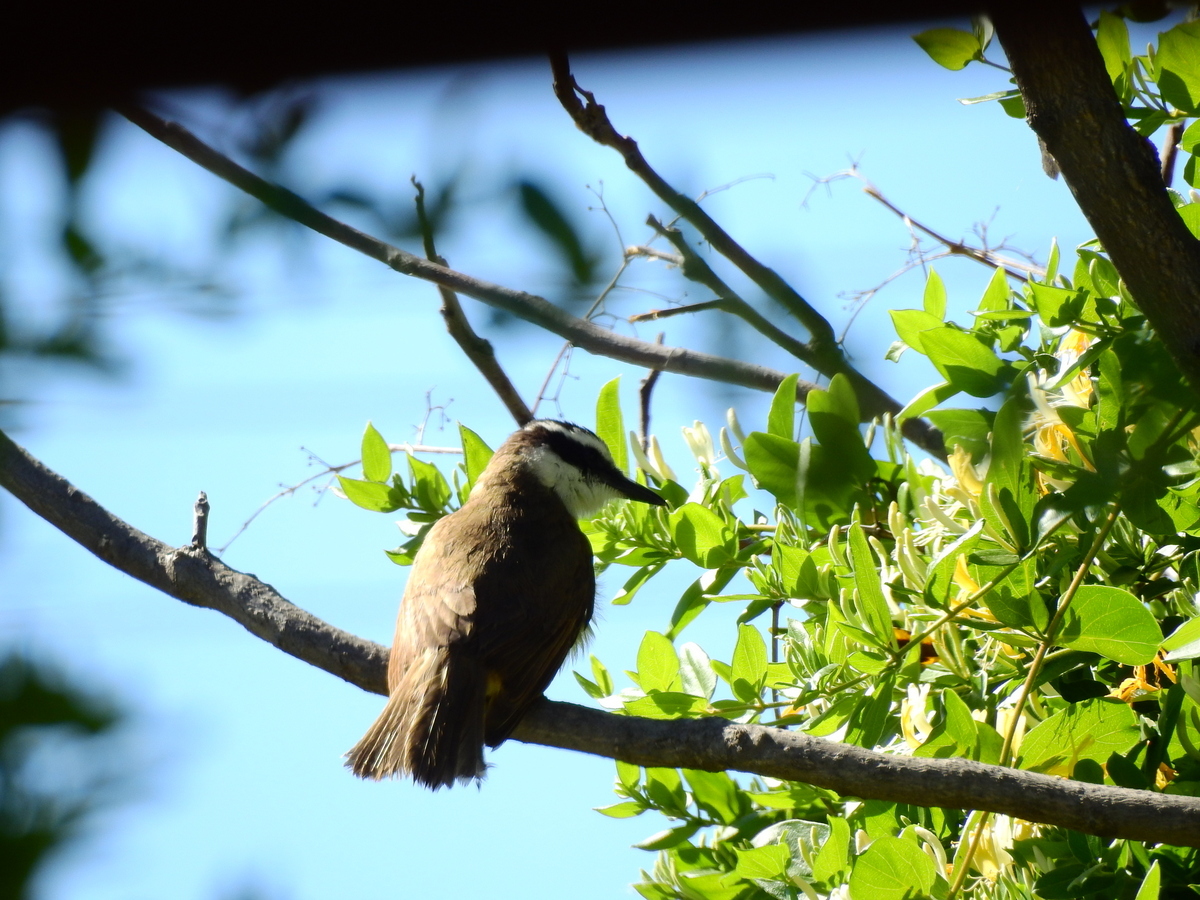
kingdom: Animalia
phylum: Chordata
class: Aves
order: Passeriformes
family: Tyrannidae
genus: Pitangus
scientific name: Pitangus sulphuratus
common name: Great kiskadee
